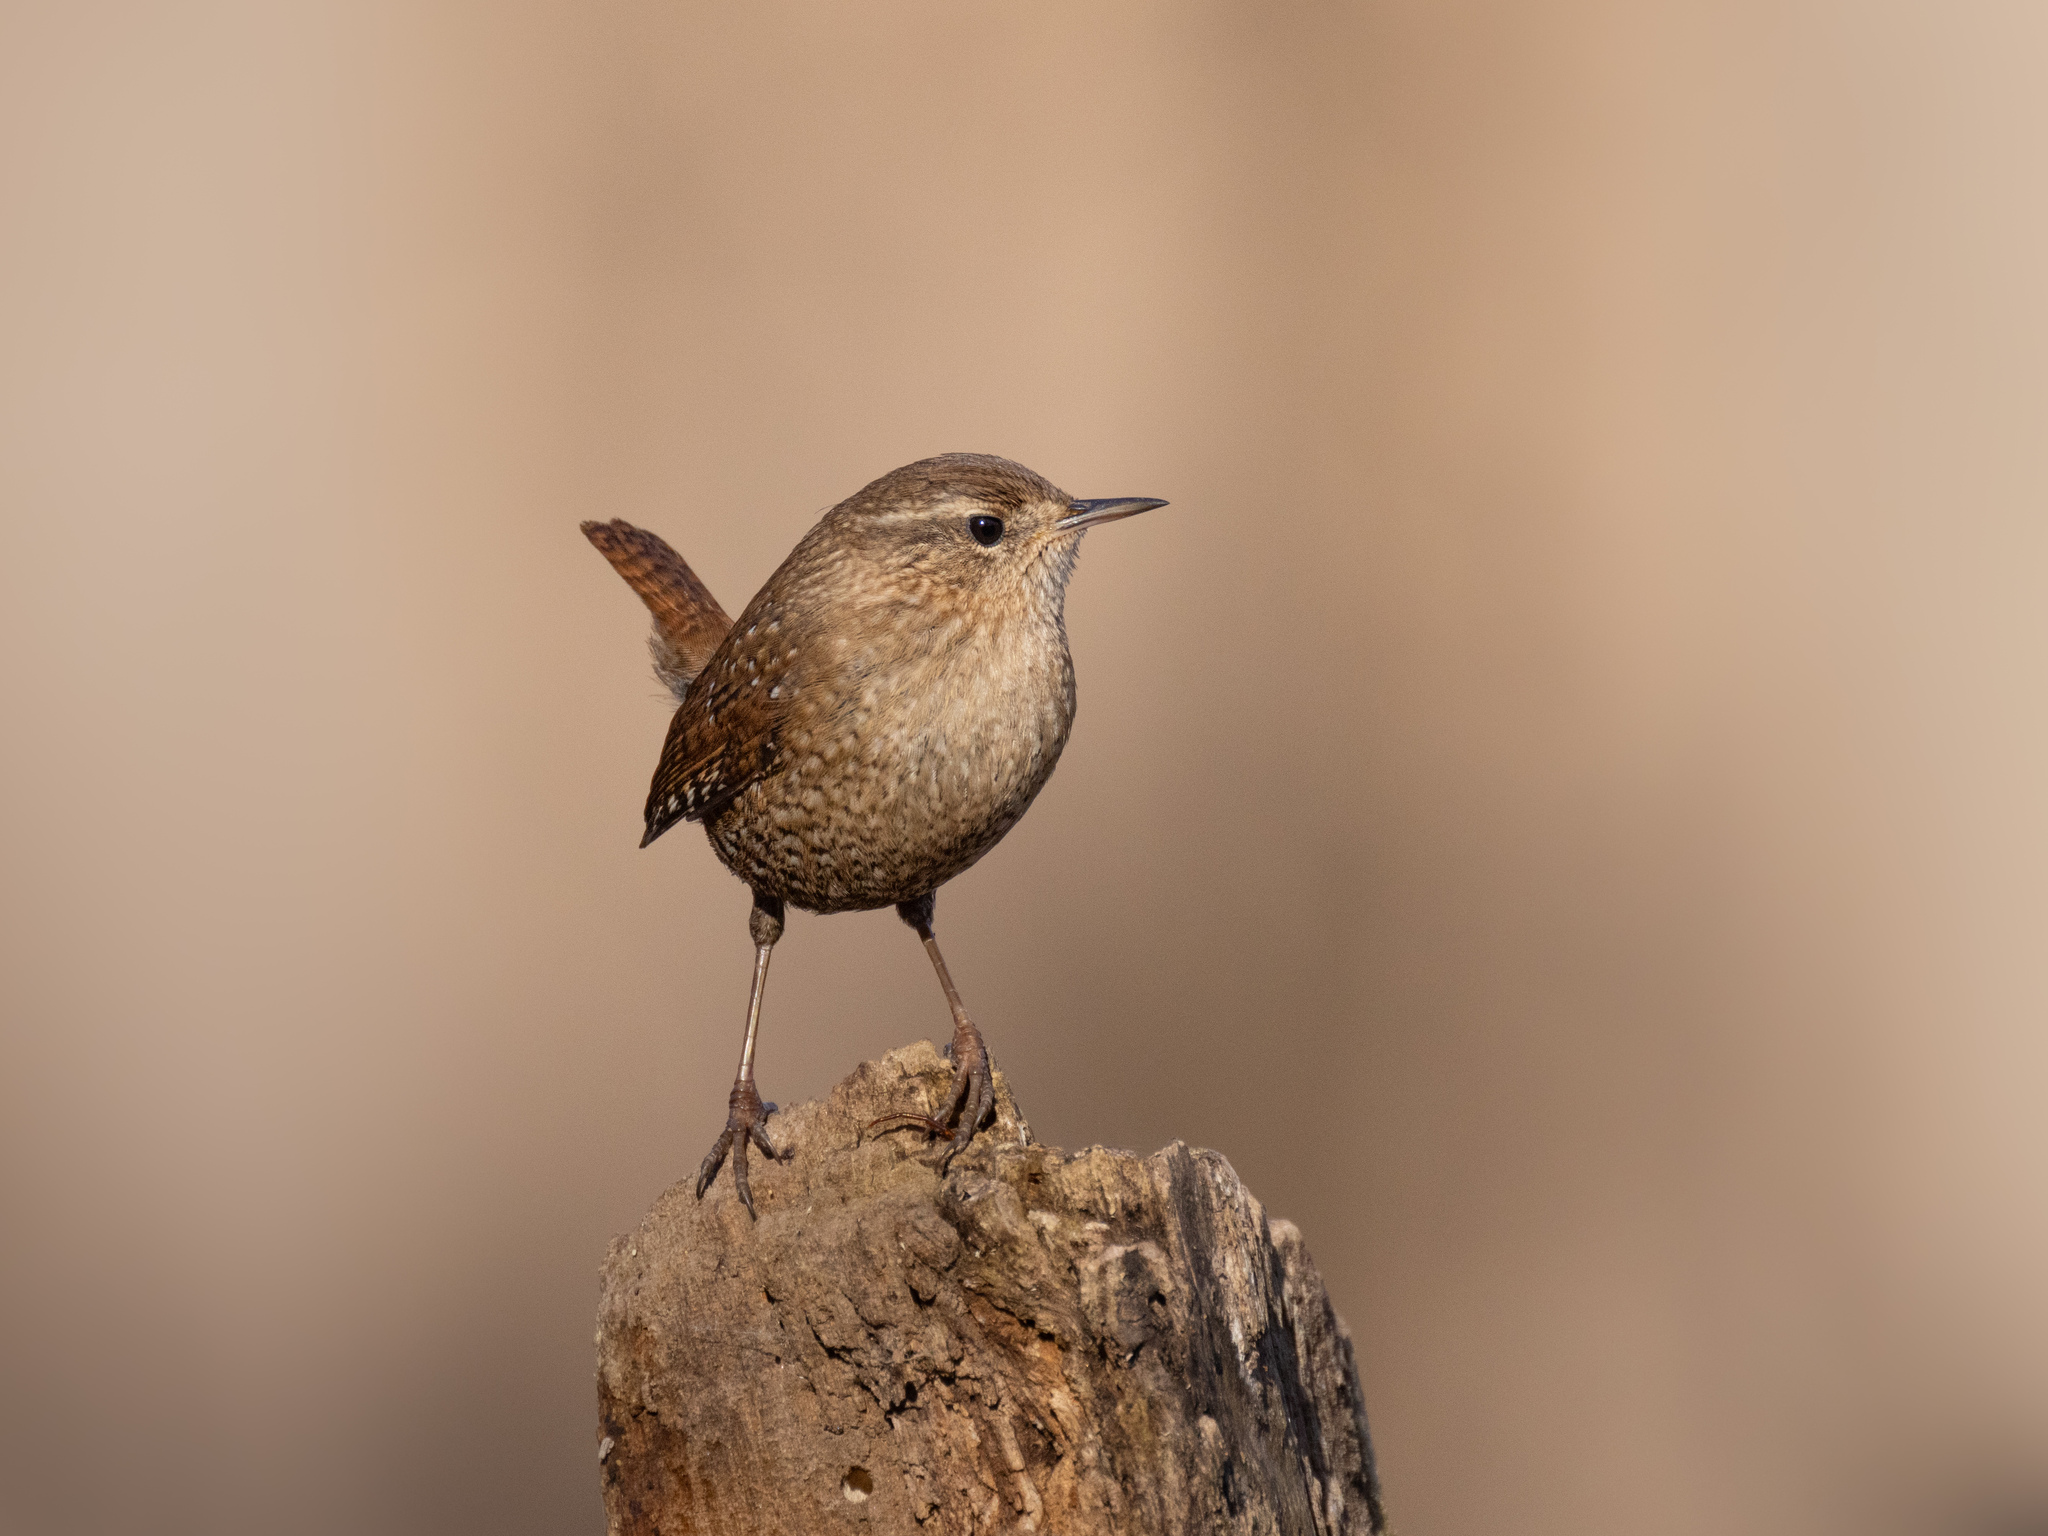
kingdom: Animalia
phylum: Chordata
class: Aves
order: Passeriformes
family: Troglodytidae
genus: Troglodytes
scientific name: Troglodytes hiemalis
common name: Winter wren
